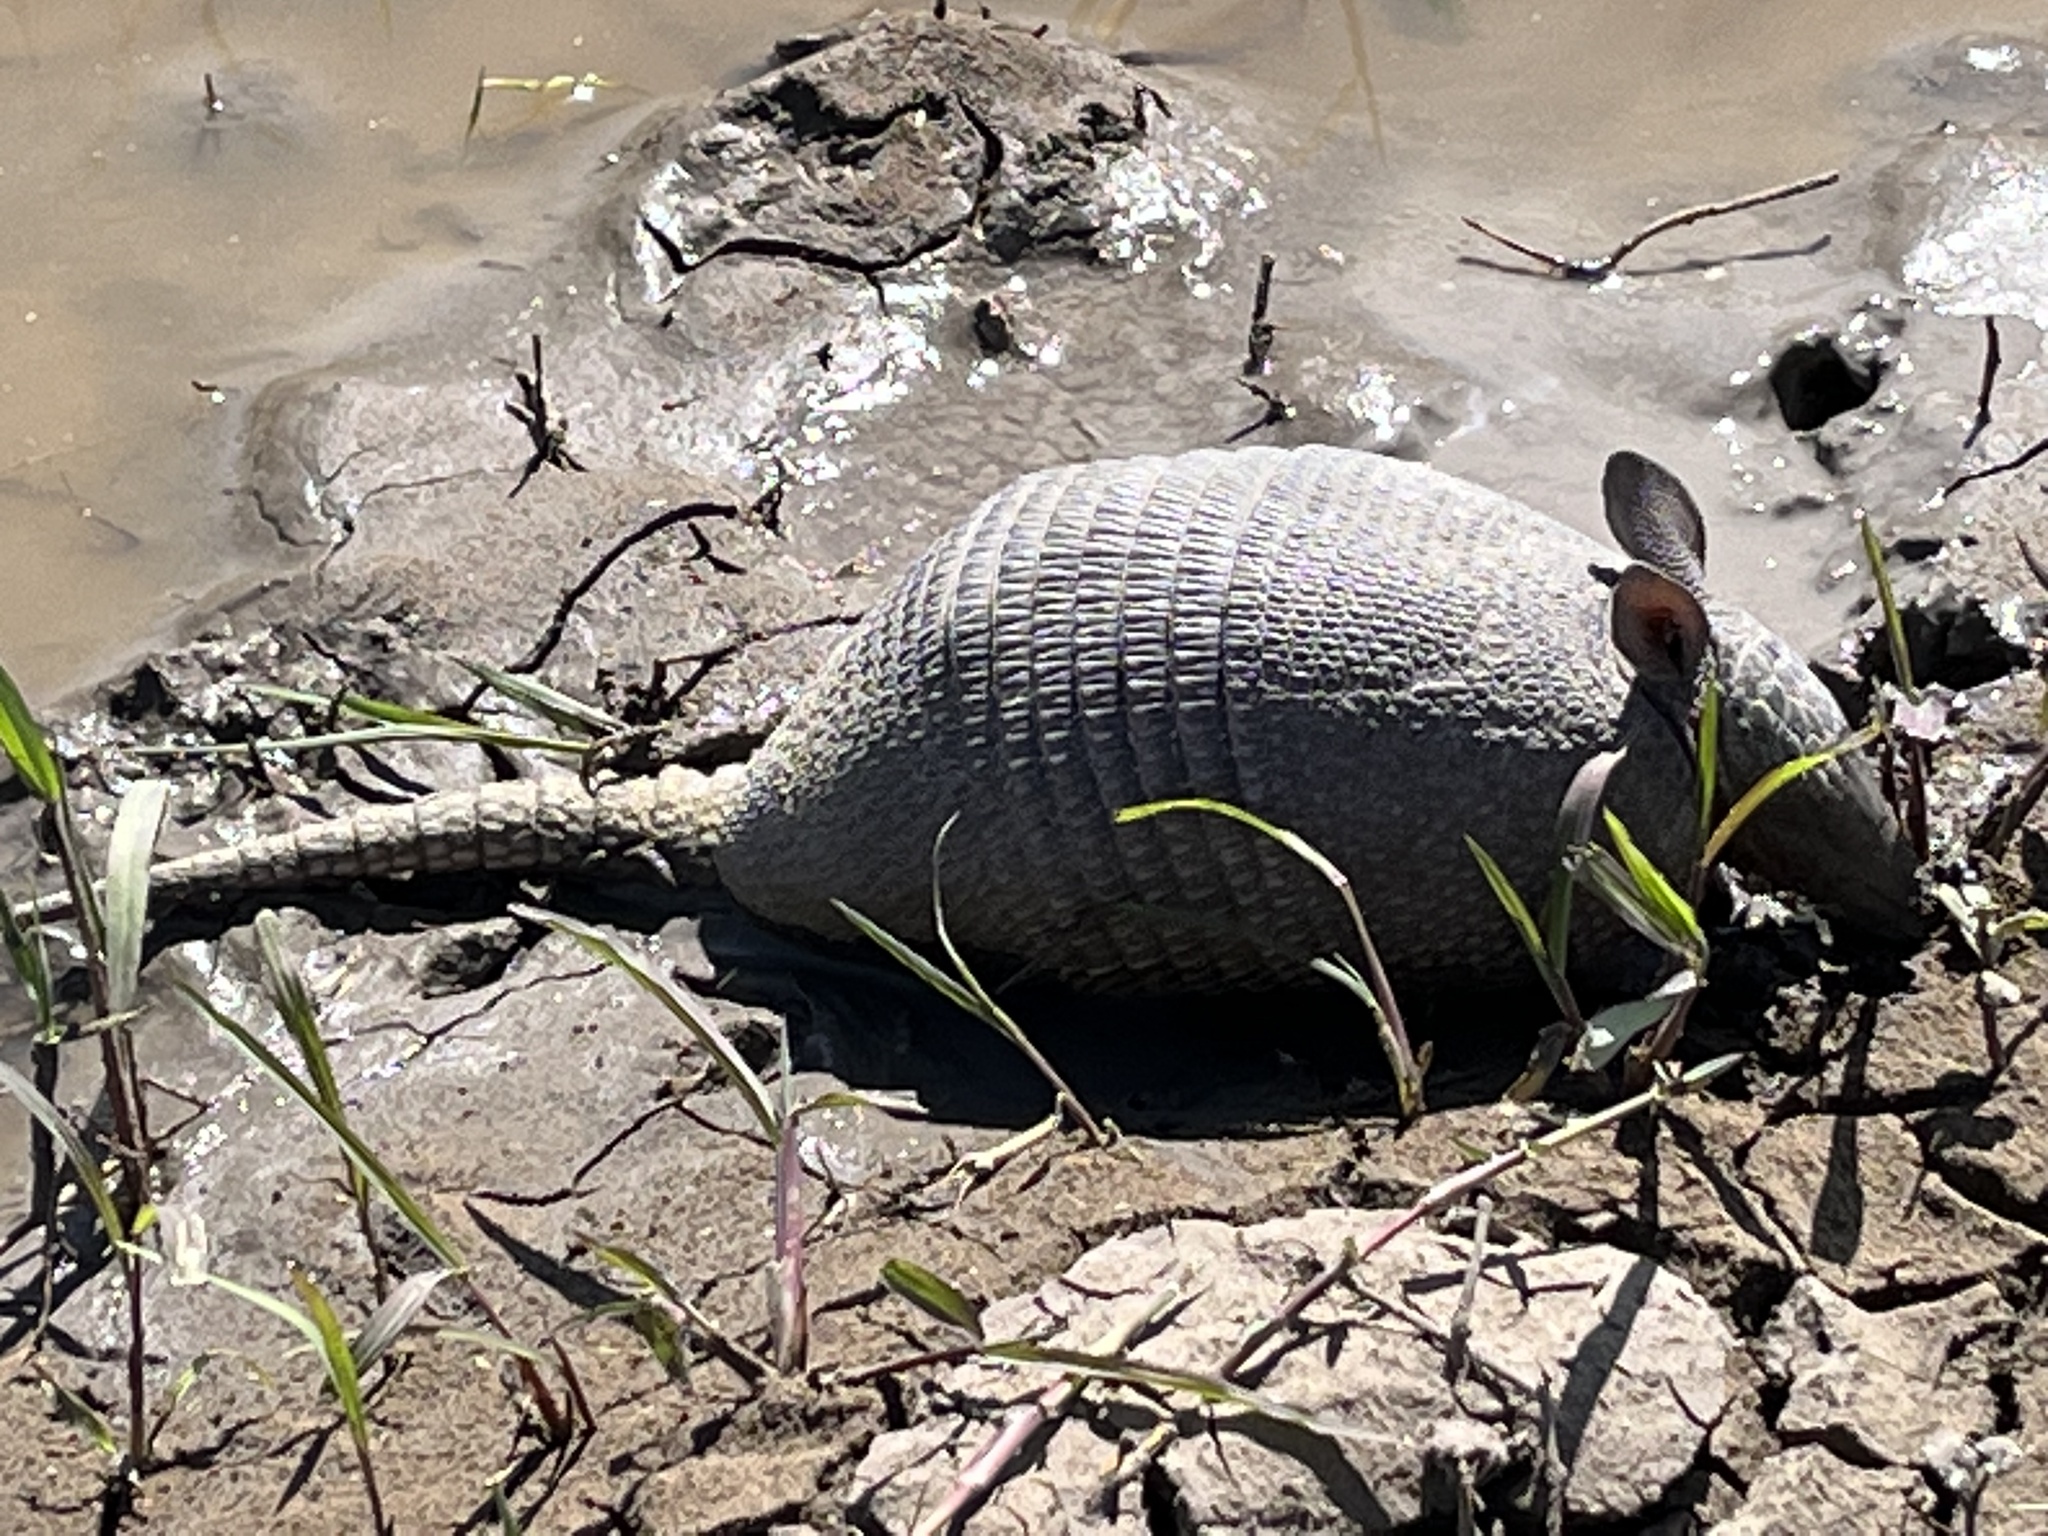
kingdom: Animalia
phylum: Chordata
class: Mammalia
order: Cingulata
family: Dasypodidae
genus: Dasypus
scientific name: Dasypus septemcinctus
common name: Seven-banded armadillo
